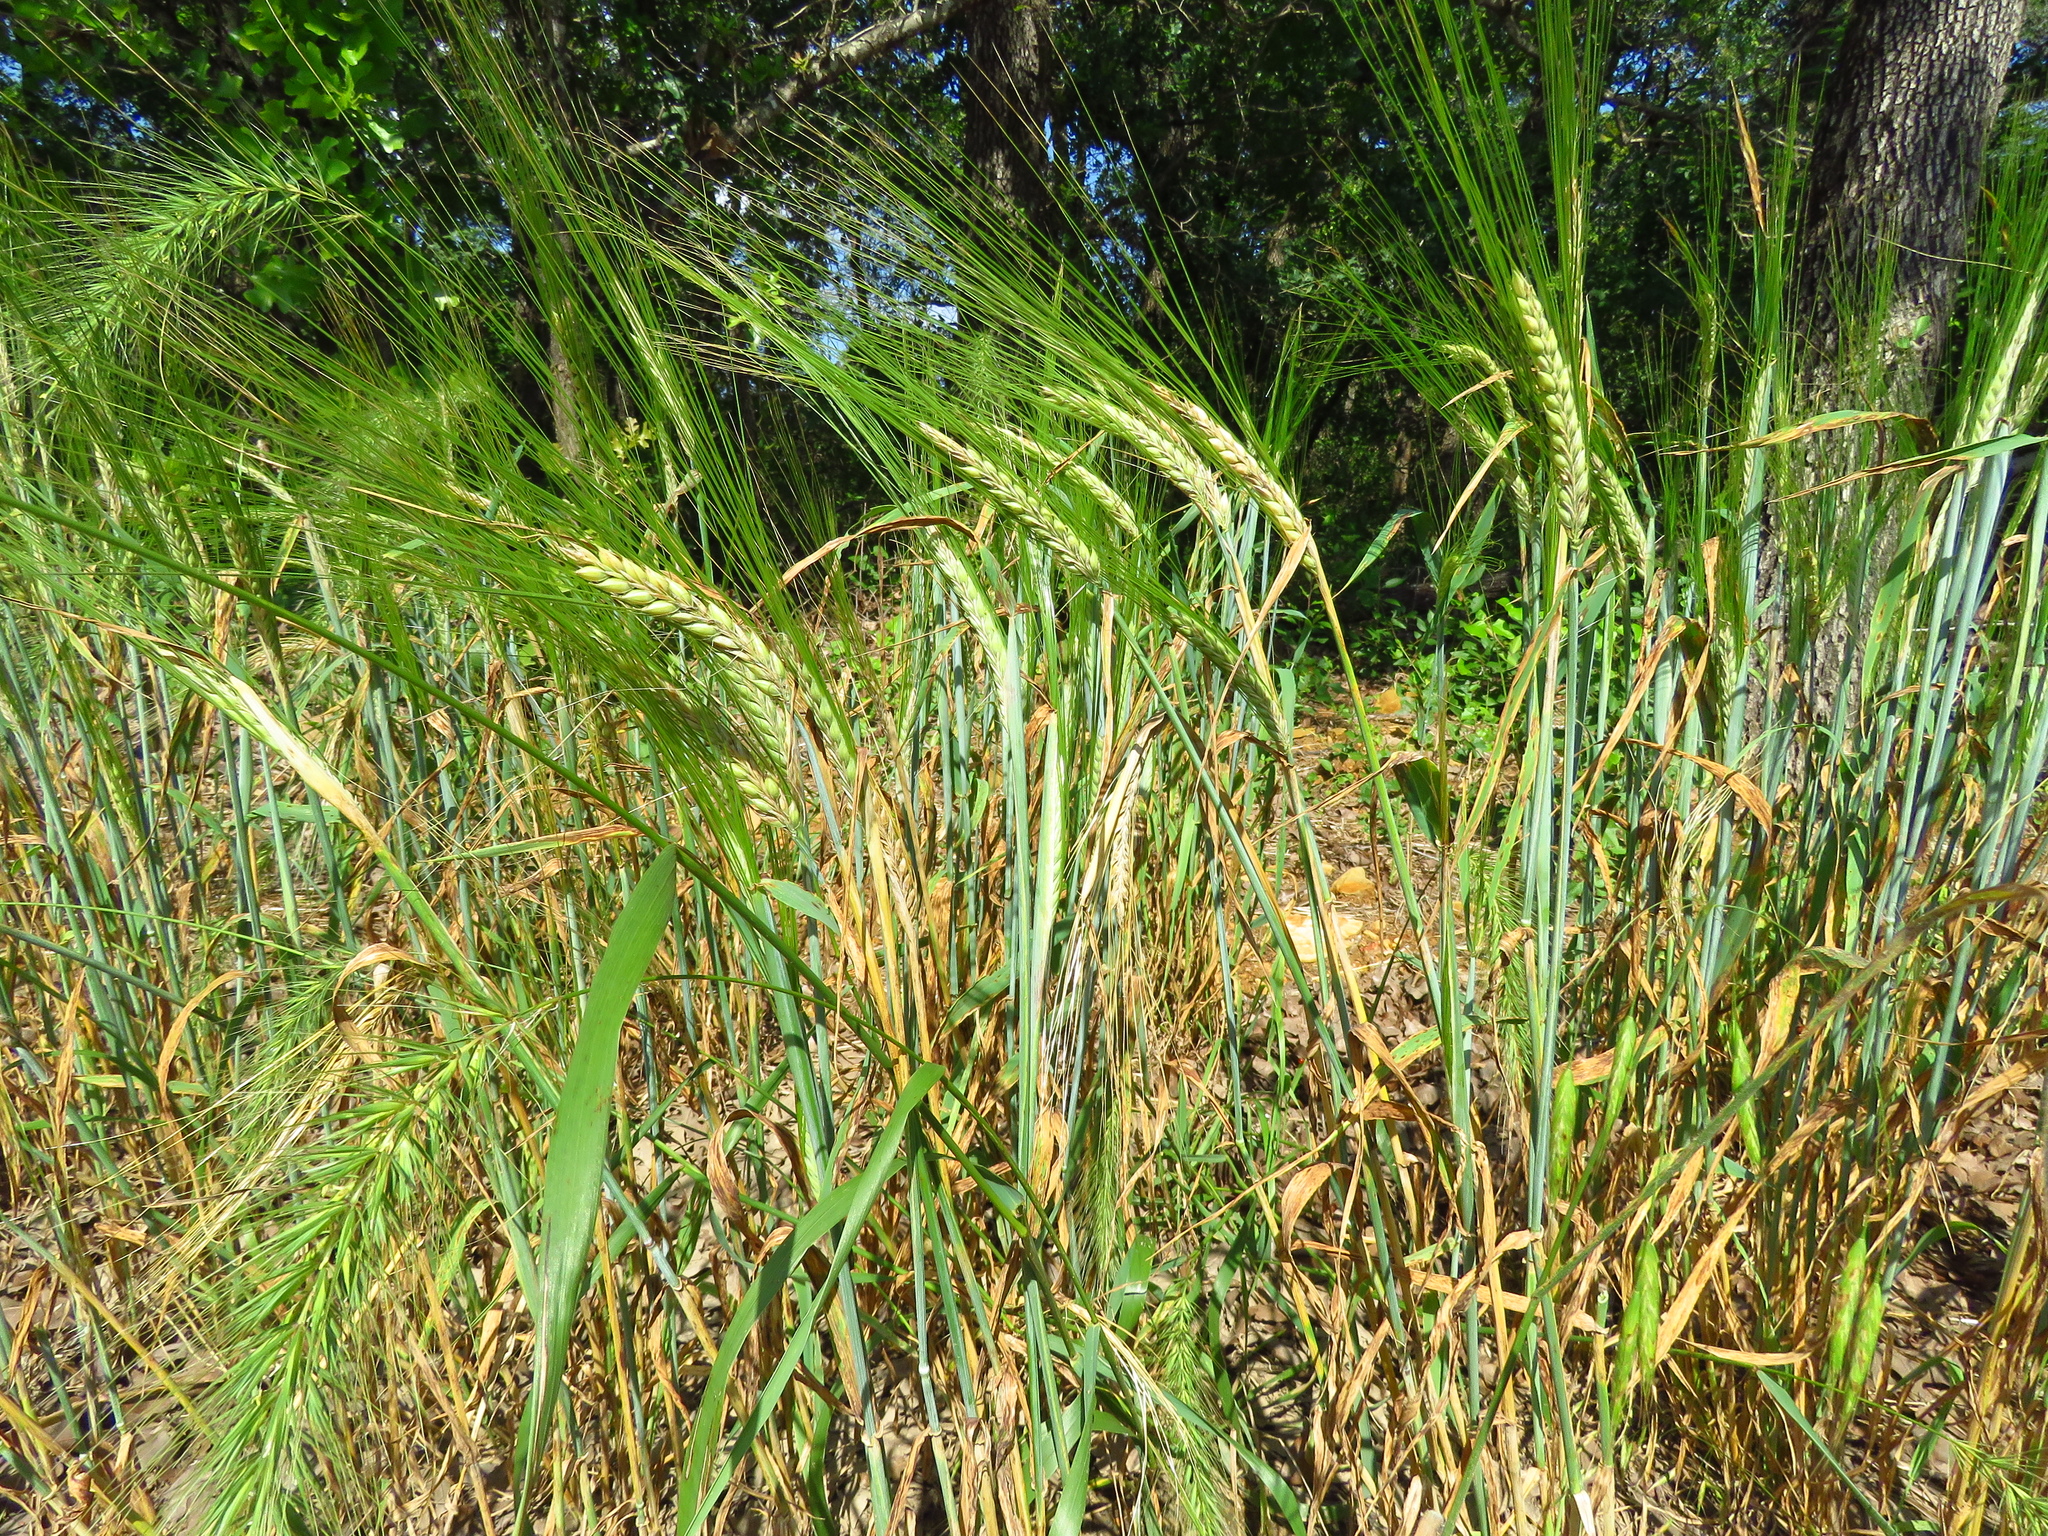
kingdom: Plantae
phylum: Tracheophyta
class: Liliopsida
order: Poales
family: Poaceae
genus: Elymus
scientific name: Elymus canadensis
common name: Canada wild rye
